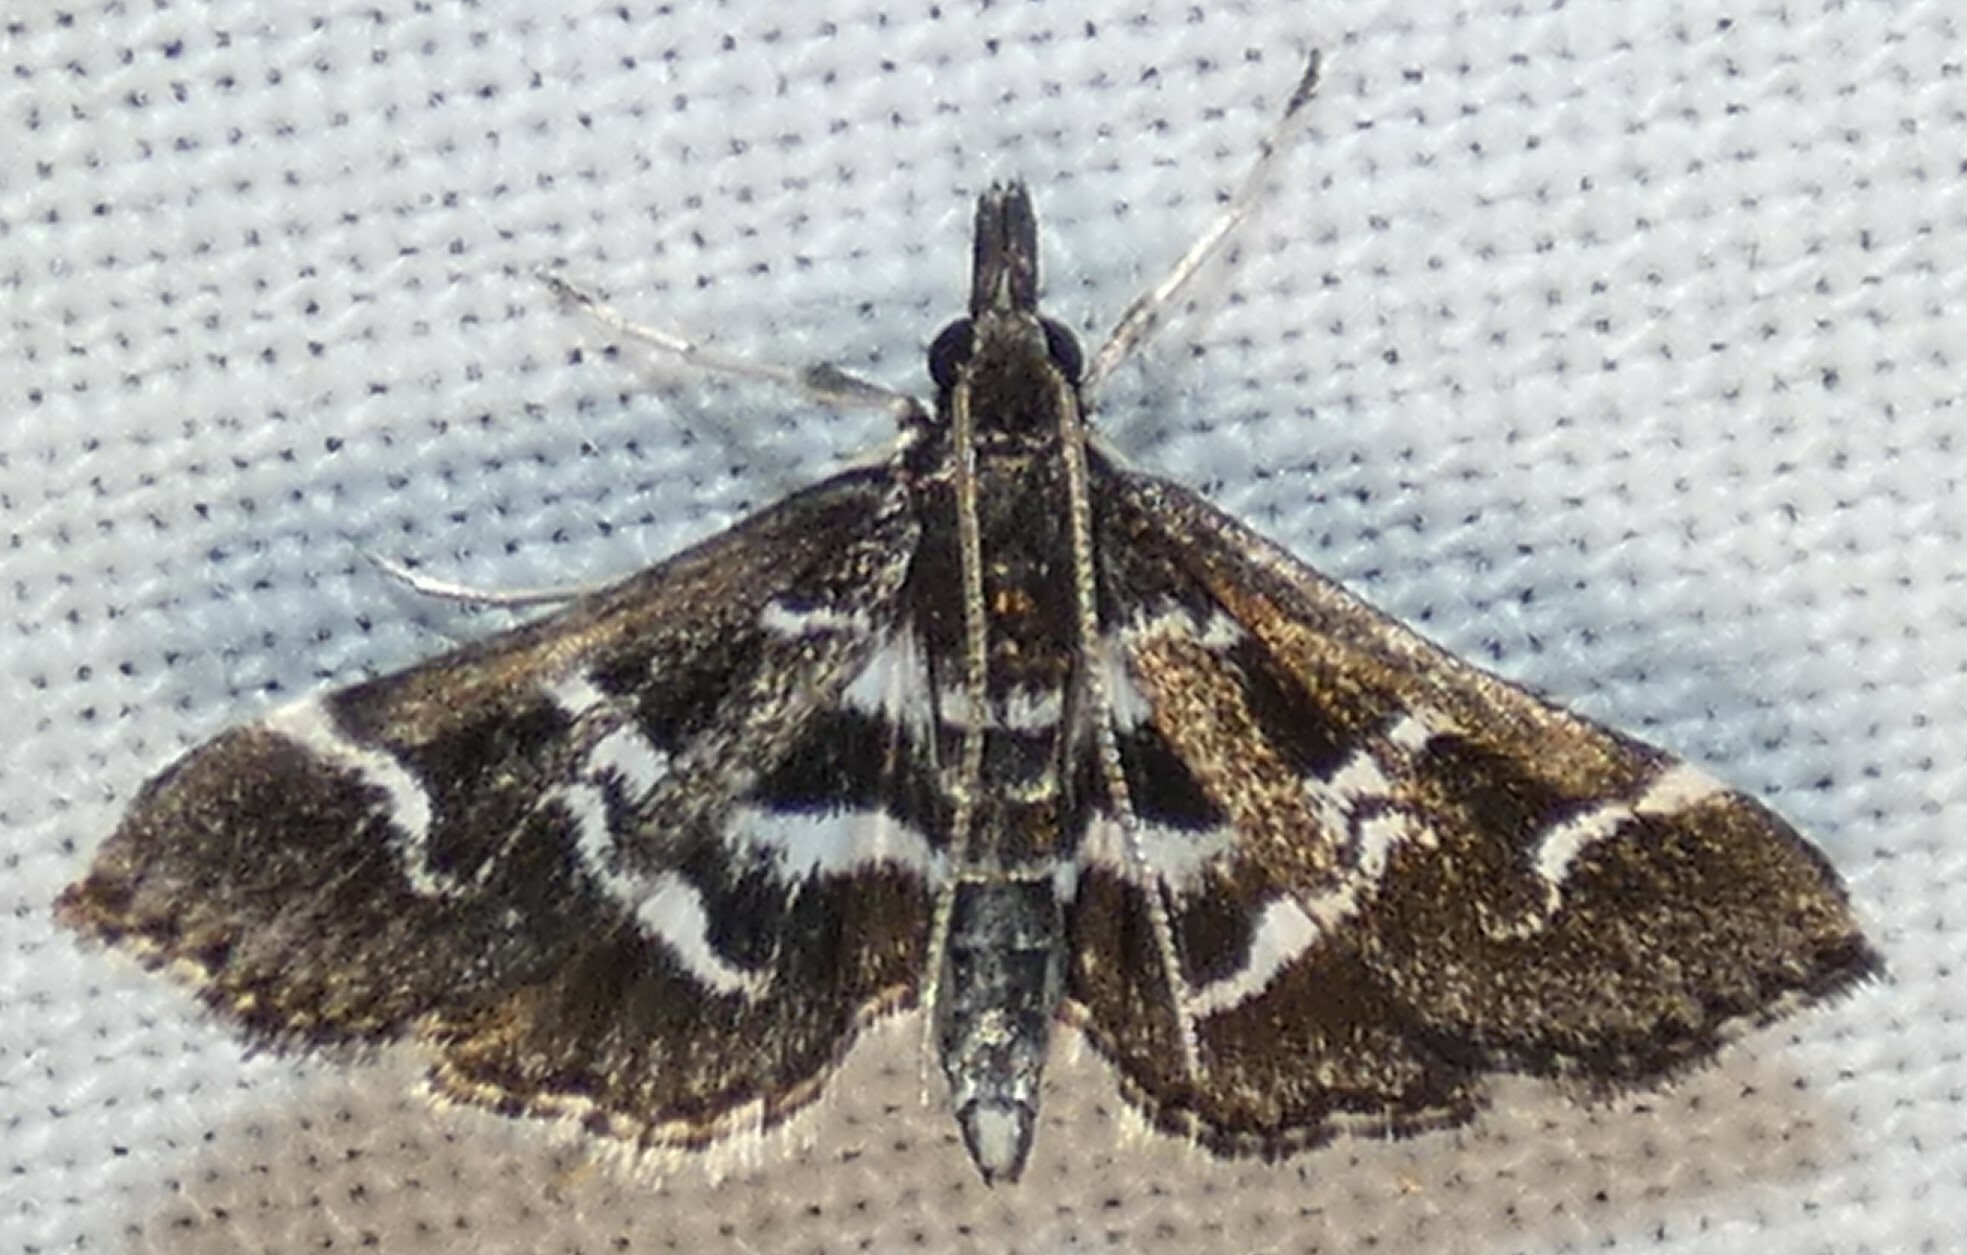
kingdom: Animalia
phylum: Arthropoda
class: Insecta
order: Lepidoptera
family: Crambidae
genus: Diasemiodes
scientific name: Diasemiodes janassialis
